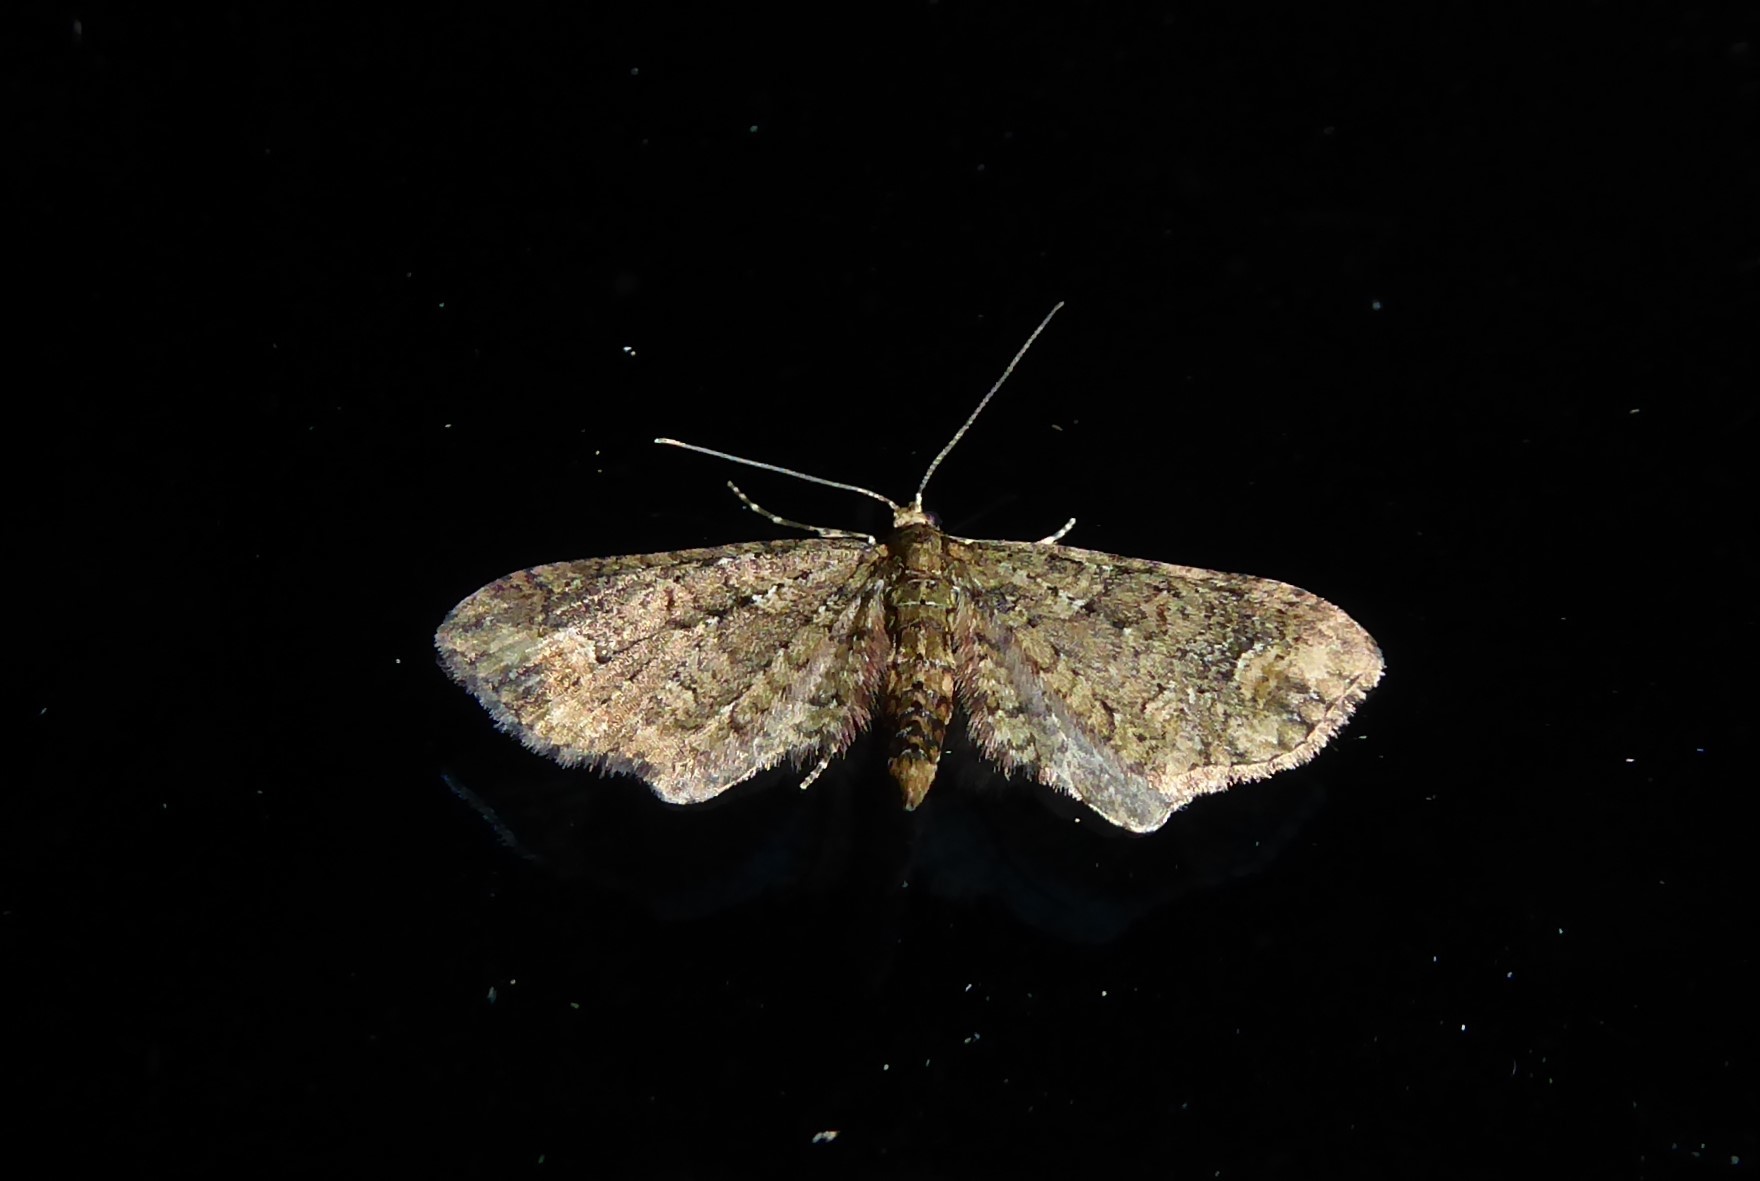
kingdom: Animalia
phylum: Arthropoda
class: Insecta
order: Lepidoptera
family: Geometridae
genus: Idaea
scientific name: Idaea mutanda
